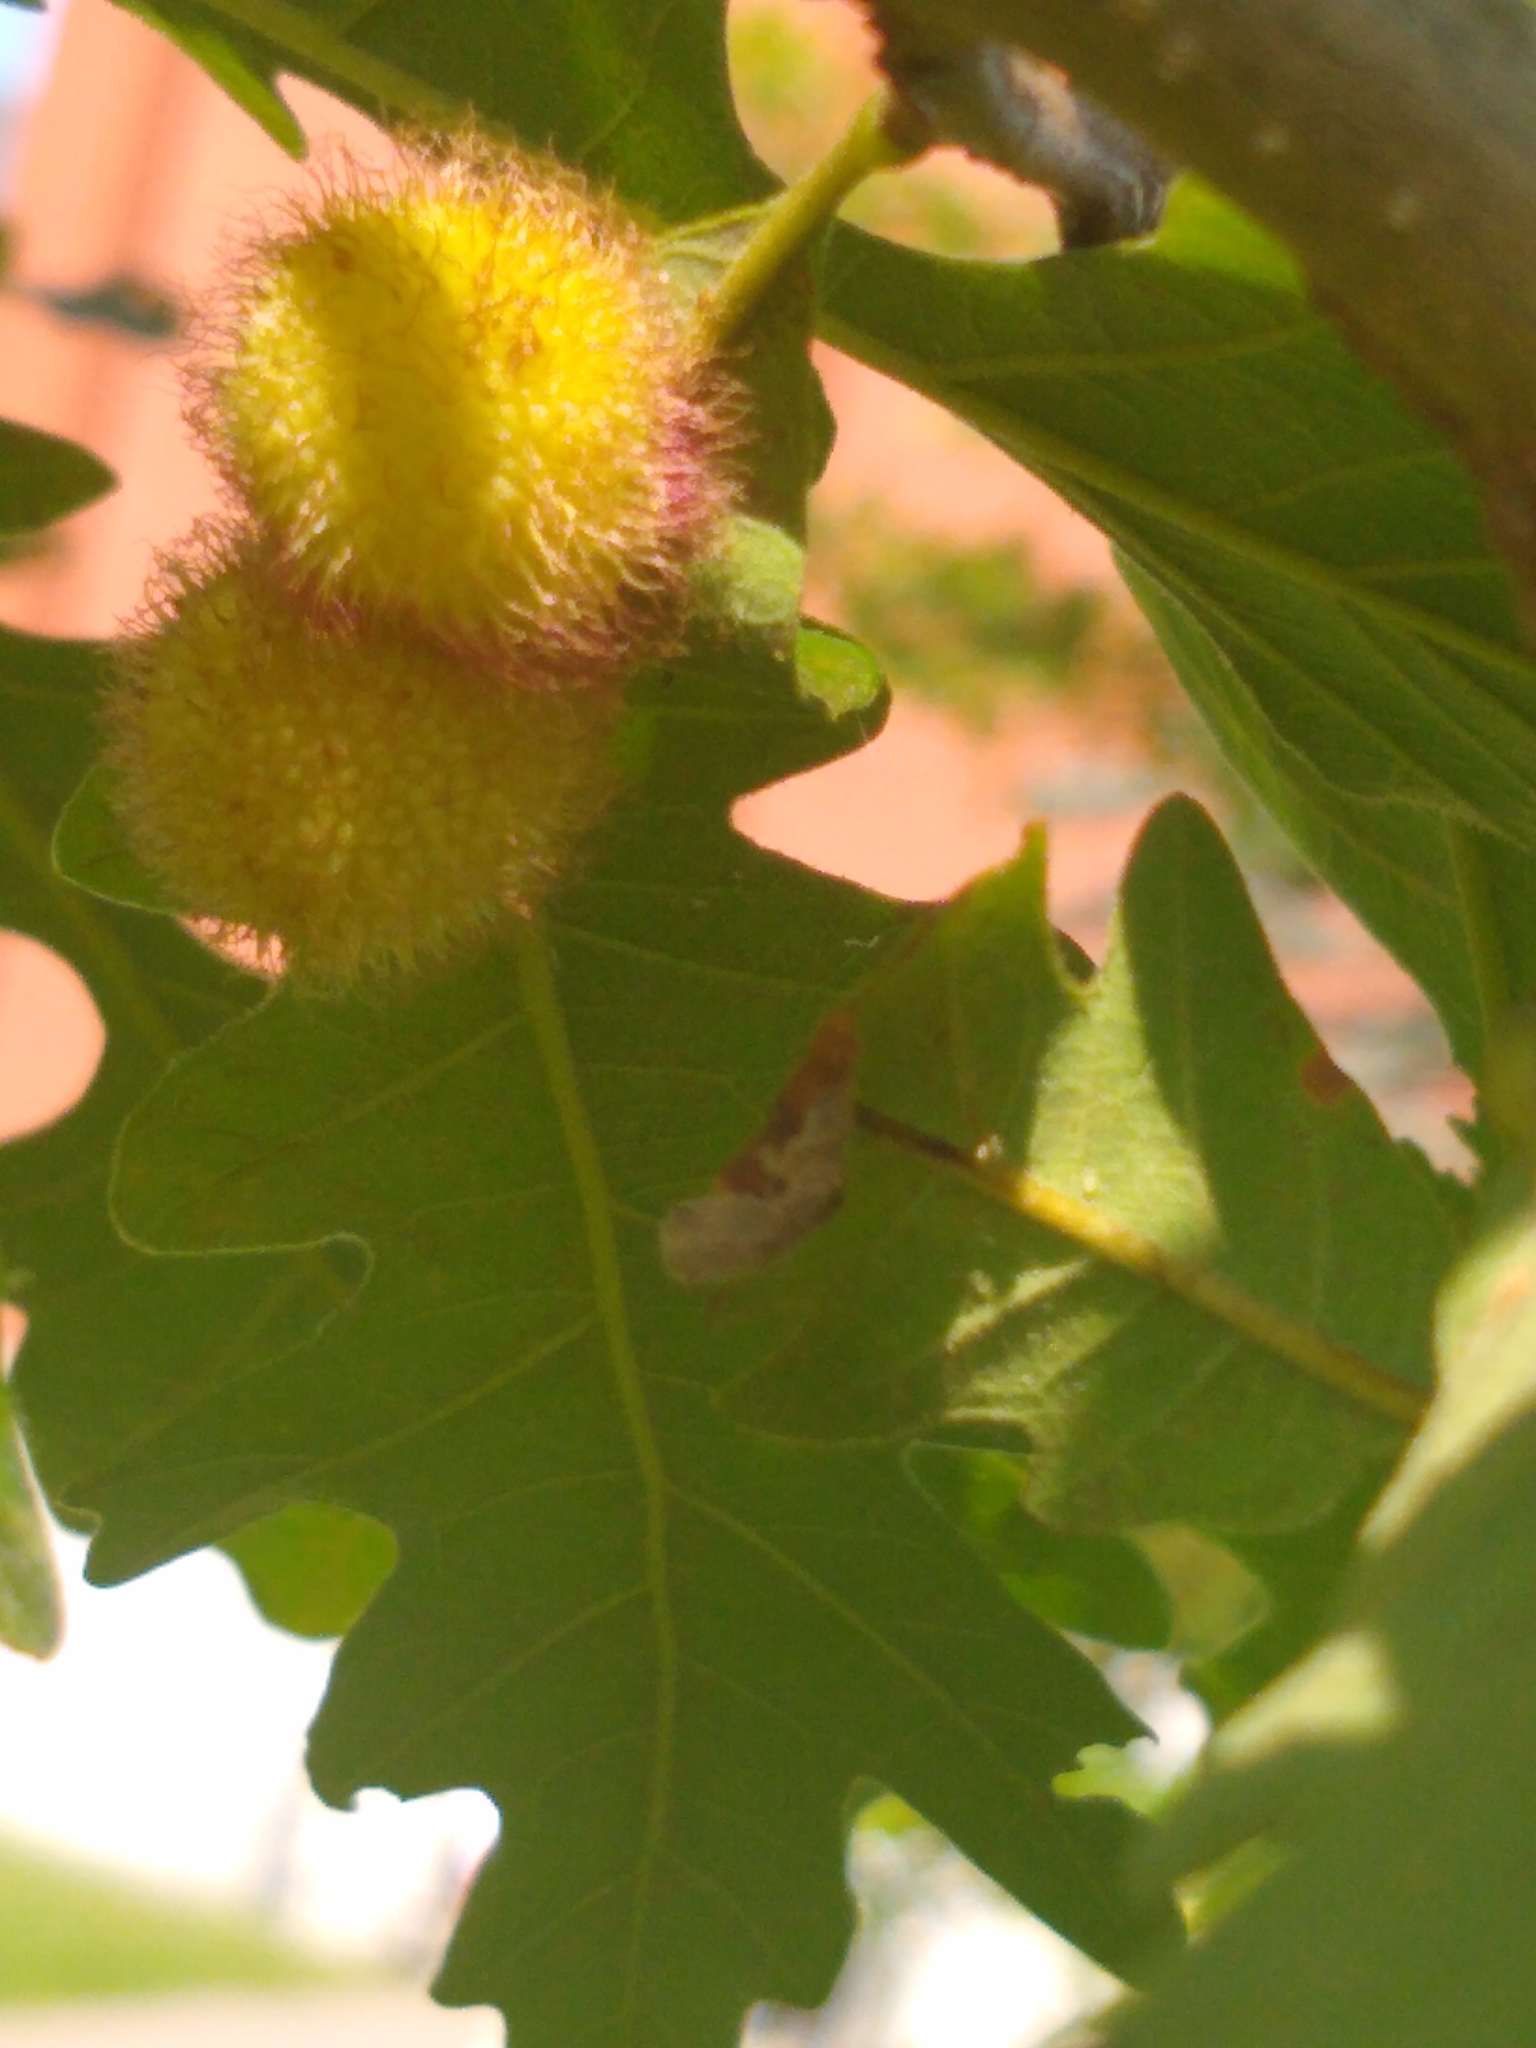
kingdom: Animalia
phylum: Arthropoda
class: Insecta
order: Hymenoptera
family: Cynipidae
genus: Acraspis
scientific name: Acraspis villosa
